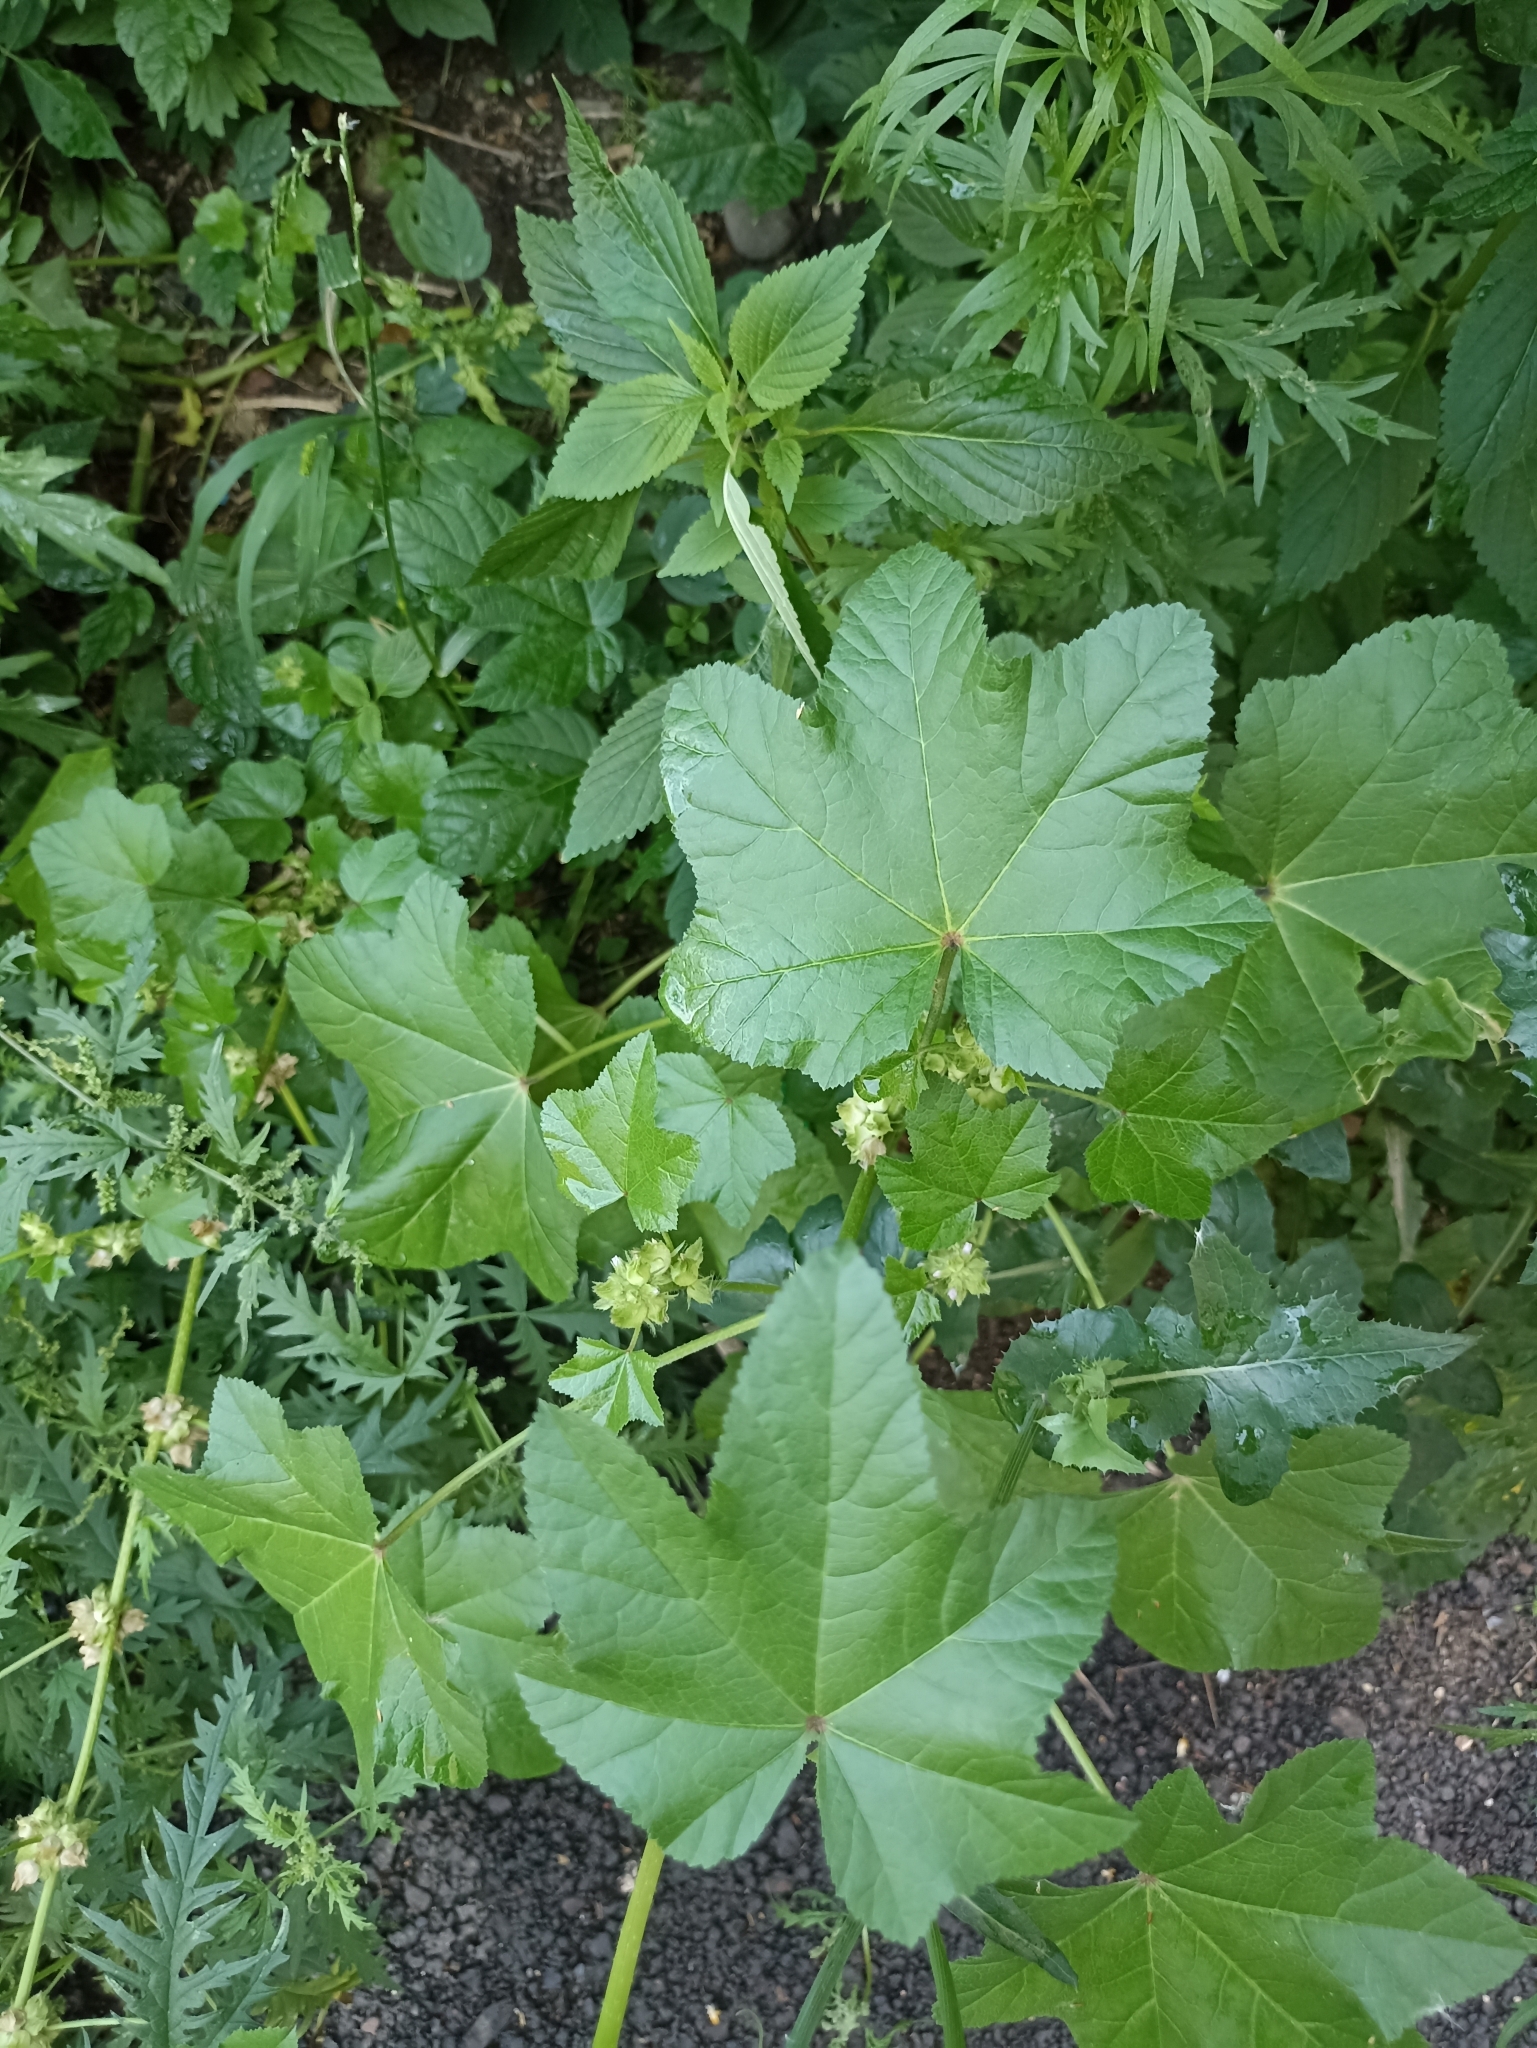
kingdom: Plantae
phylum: Tracheophyta
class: Magnoliopsida
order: Malvales
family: Malvaceae
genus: Malva
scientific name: Malva verticillata
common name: Chinese mallow
